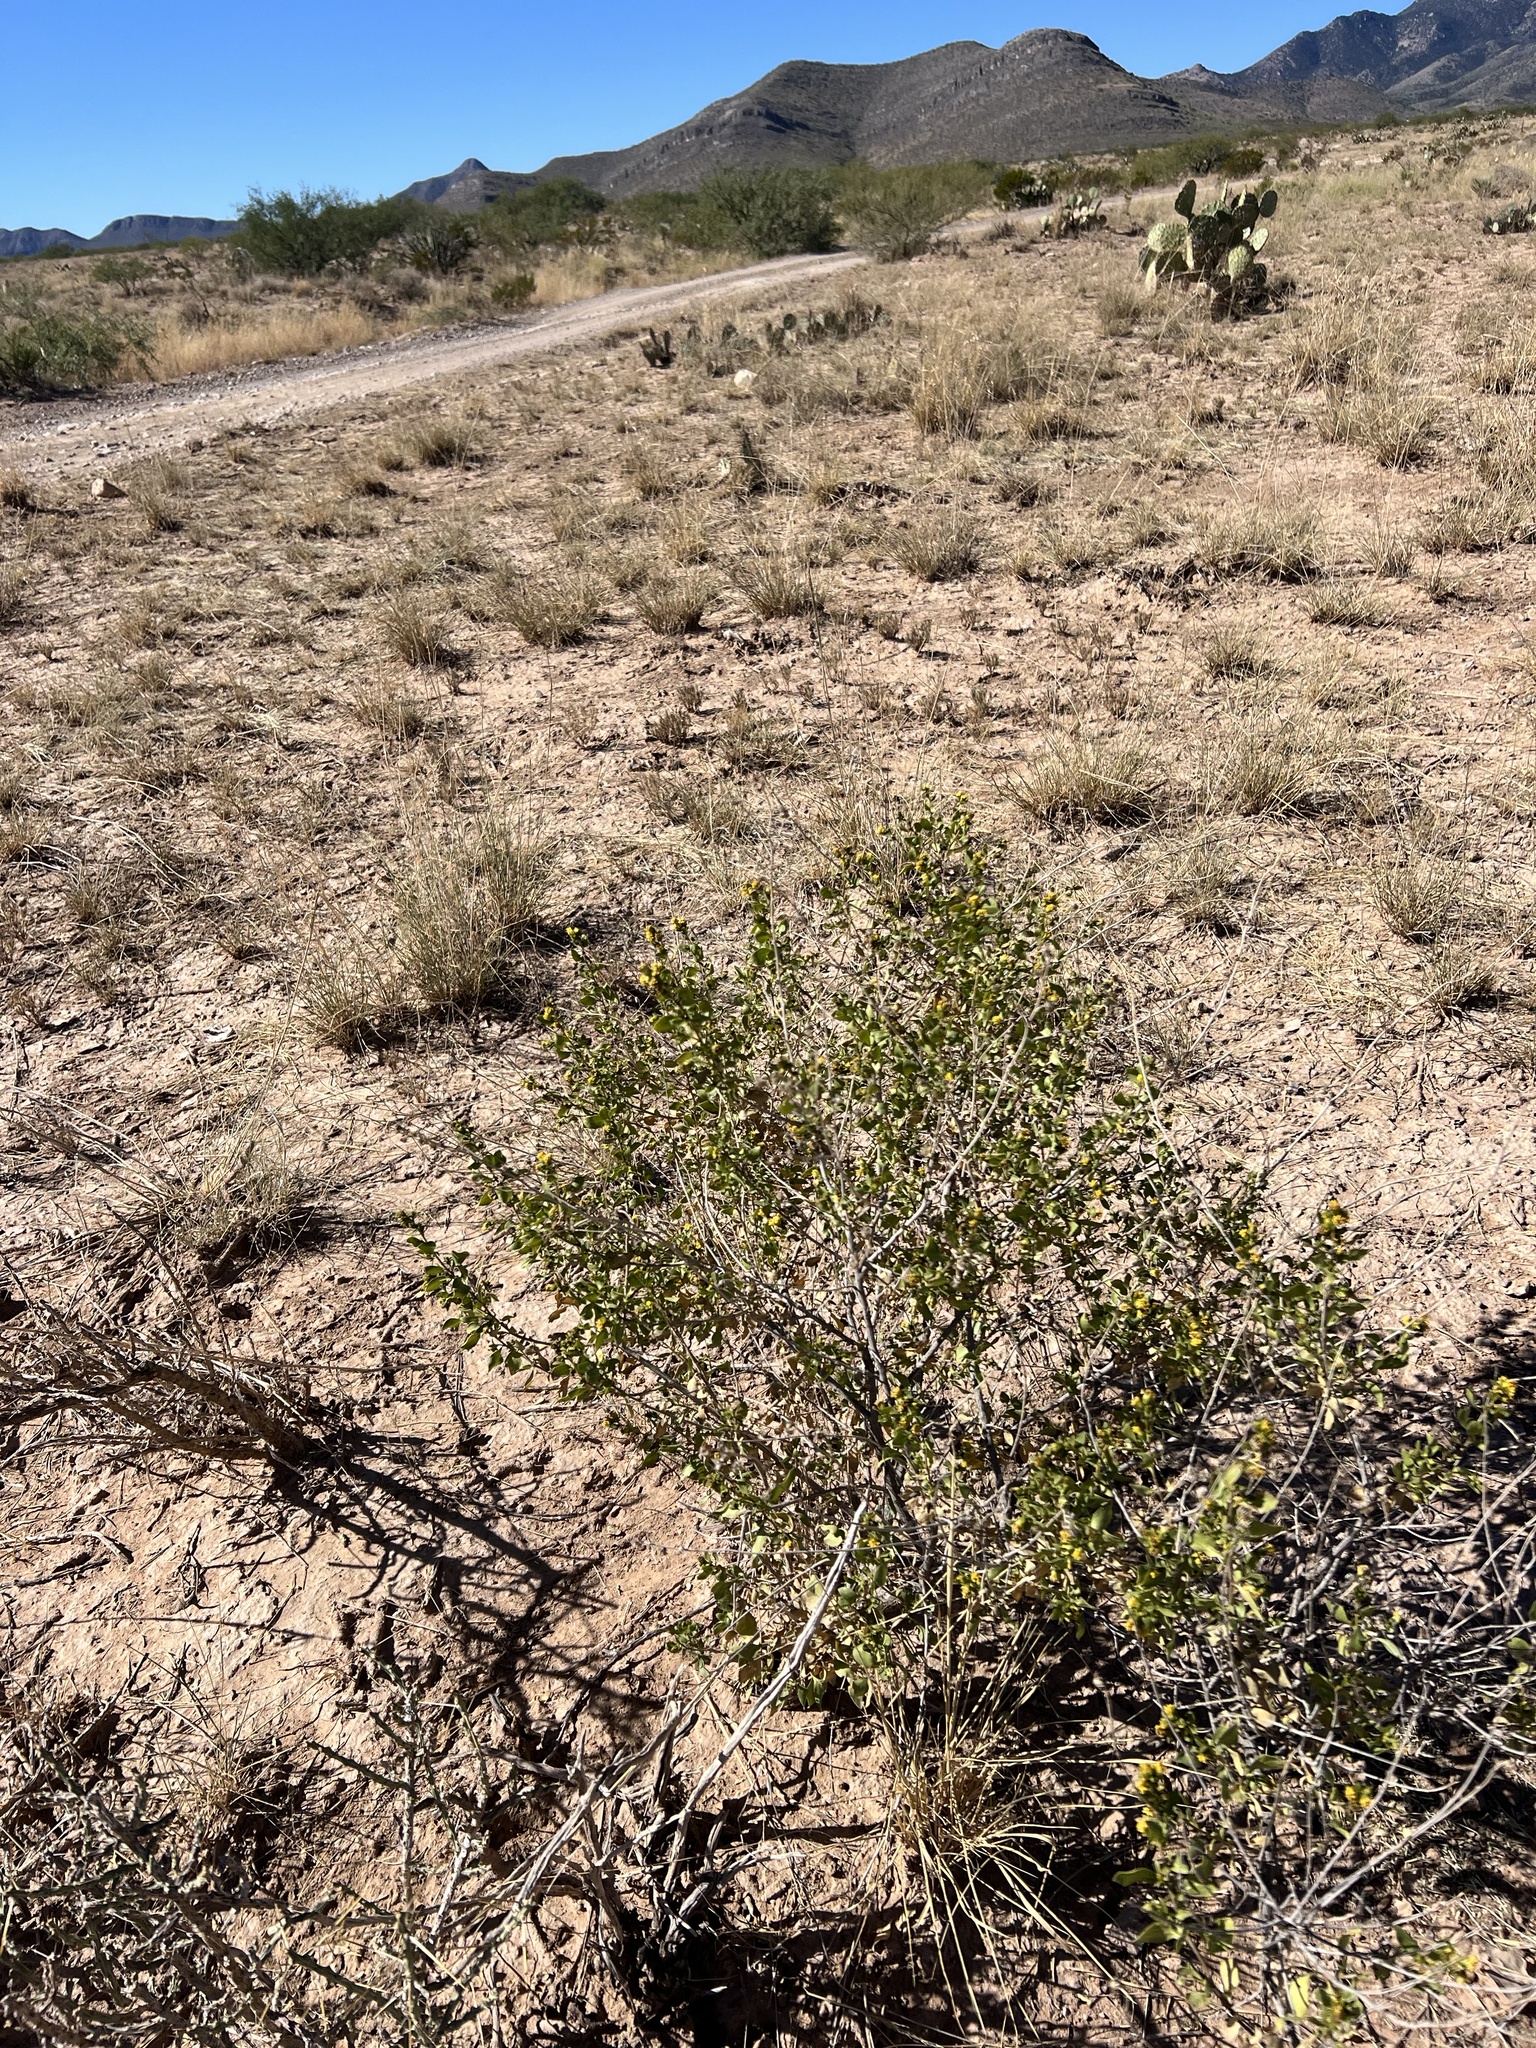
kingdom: Plantae
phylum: Tracheophyta
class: Magnoliopsida
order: Asterales
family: Asteraceae
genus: Flourensia
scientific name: Flourensia cernua
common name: Varnishbush
